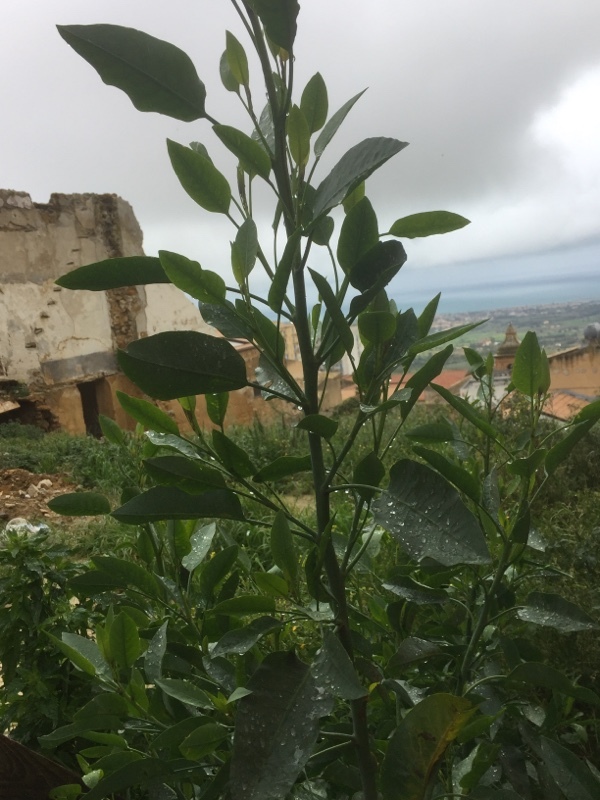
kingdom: Plantae
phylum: Tracheophyta
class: Magnoliopsida
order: Solanales
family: Solanaceae
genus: Nicotiana
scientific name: Nicotiana glauca
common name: Tree tobacco
